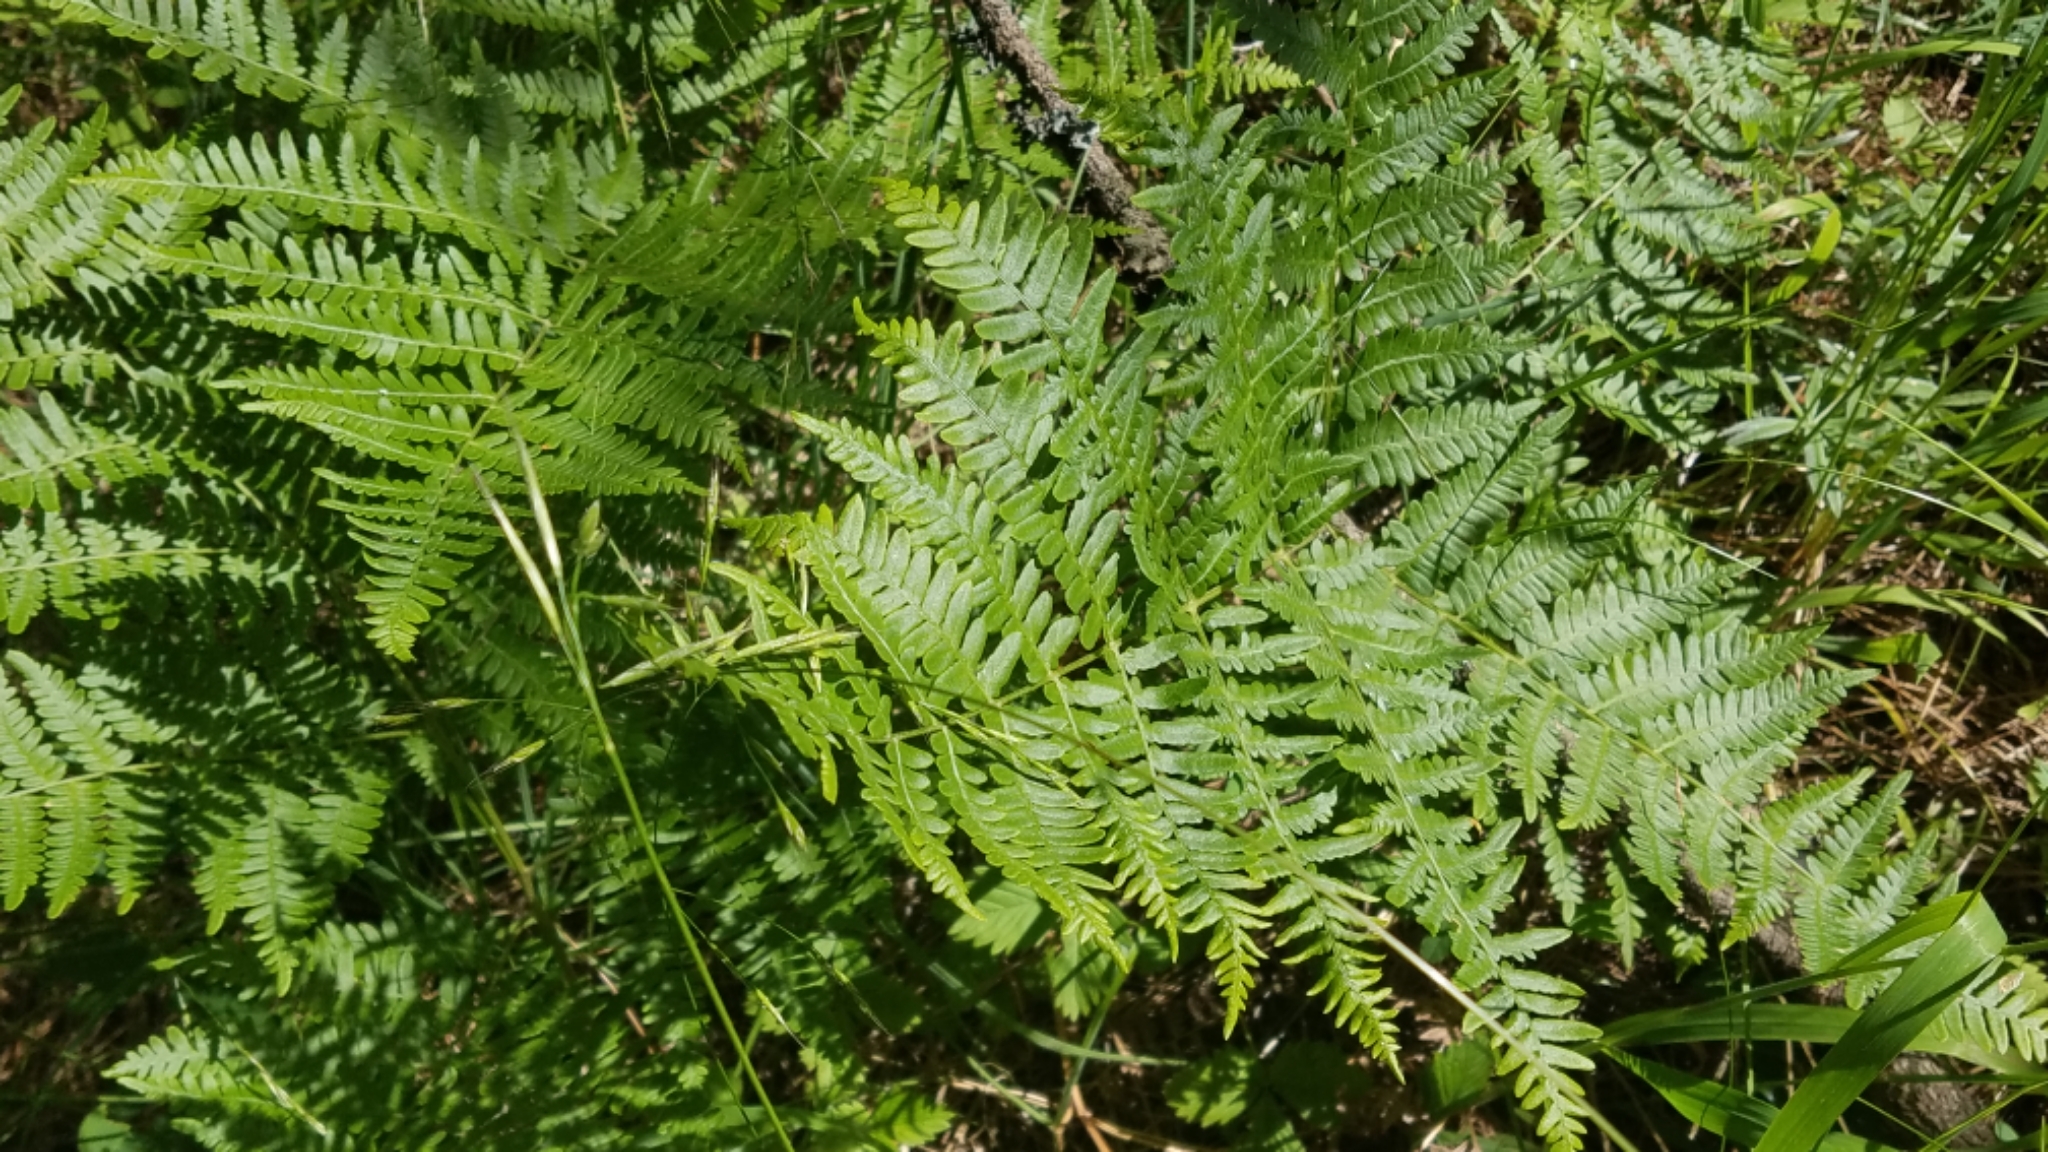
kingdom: Plantae
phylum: Tracheophyta
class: Polypodiopsida
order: Polypodiales
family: Dennstaedtiaceae
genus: Pteridium
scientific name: Pteridium aquilinum
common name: Bracken
